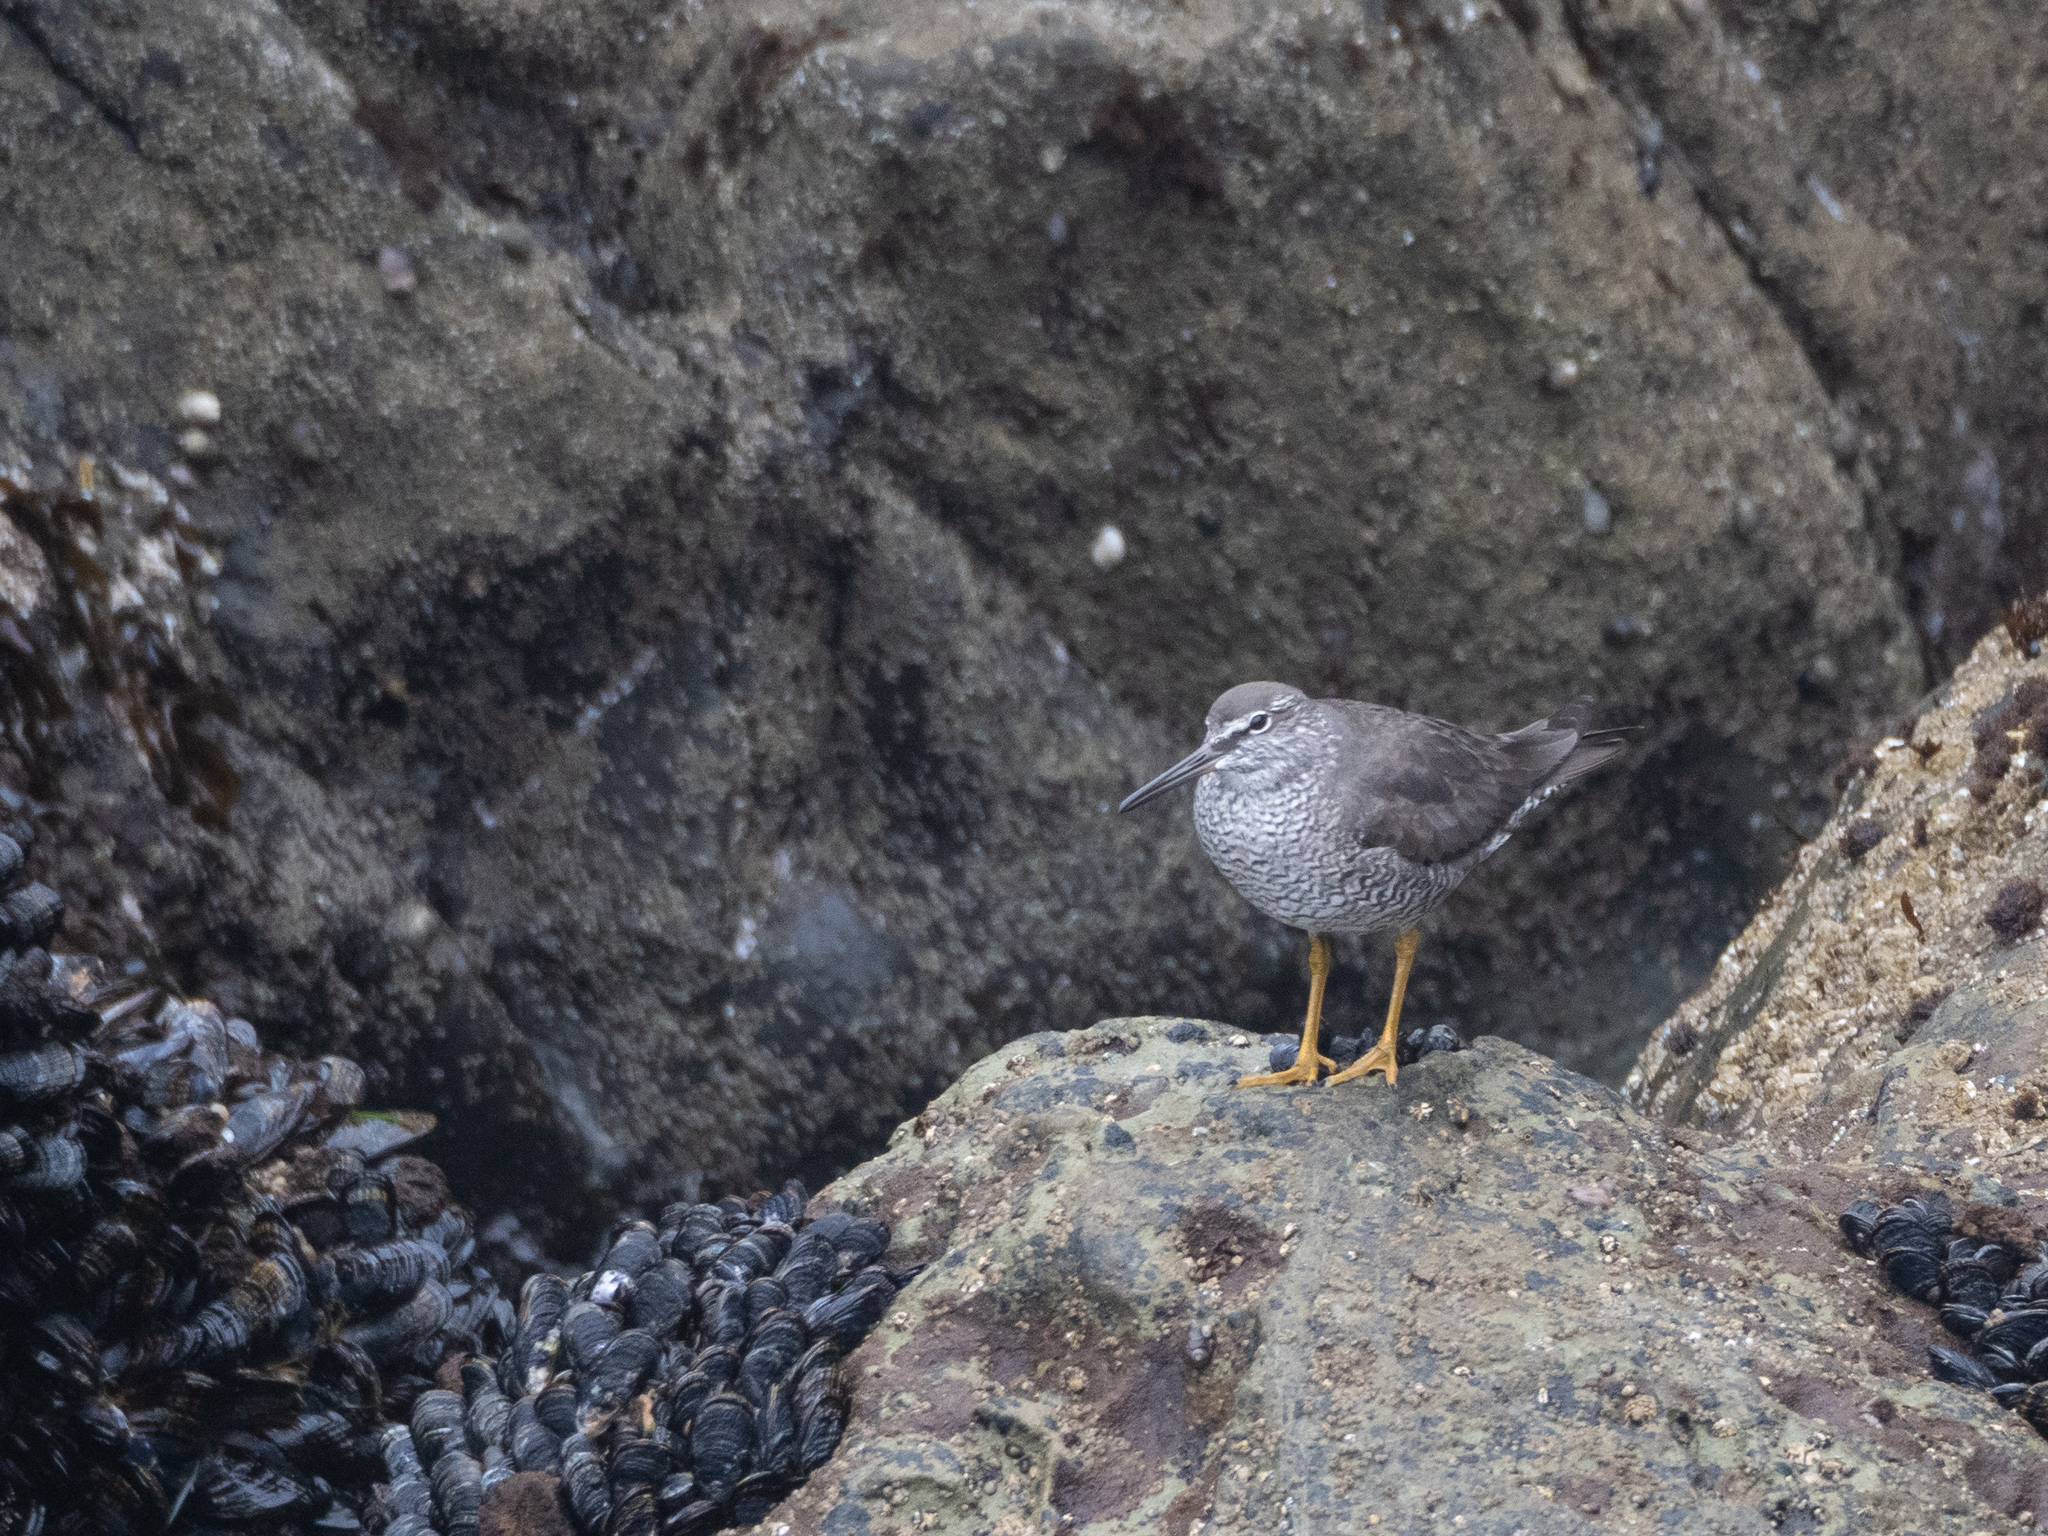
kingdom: Animalia
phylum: Chordata
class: Aves
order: Charadriiformes
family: Scolopacidae
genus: Tringa
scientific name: Tringa incana
